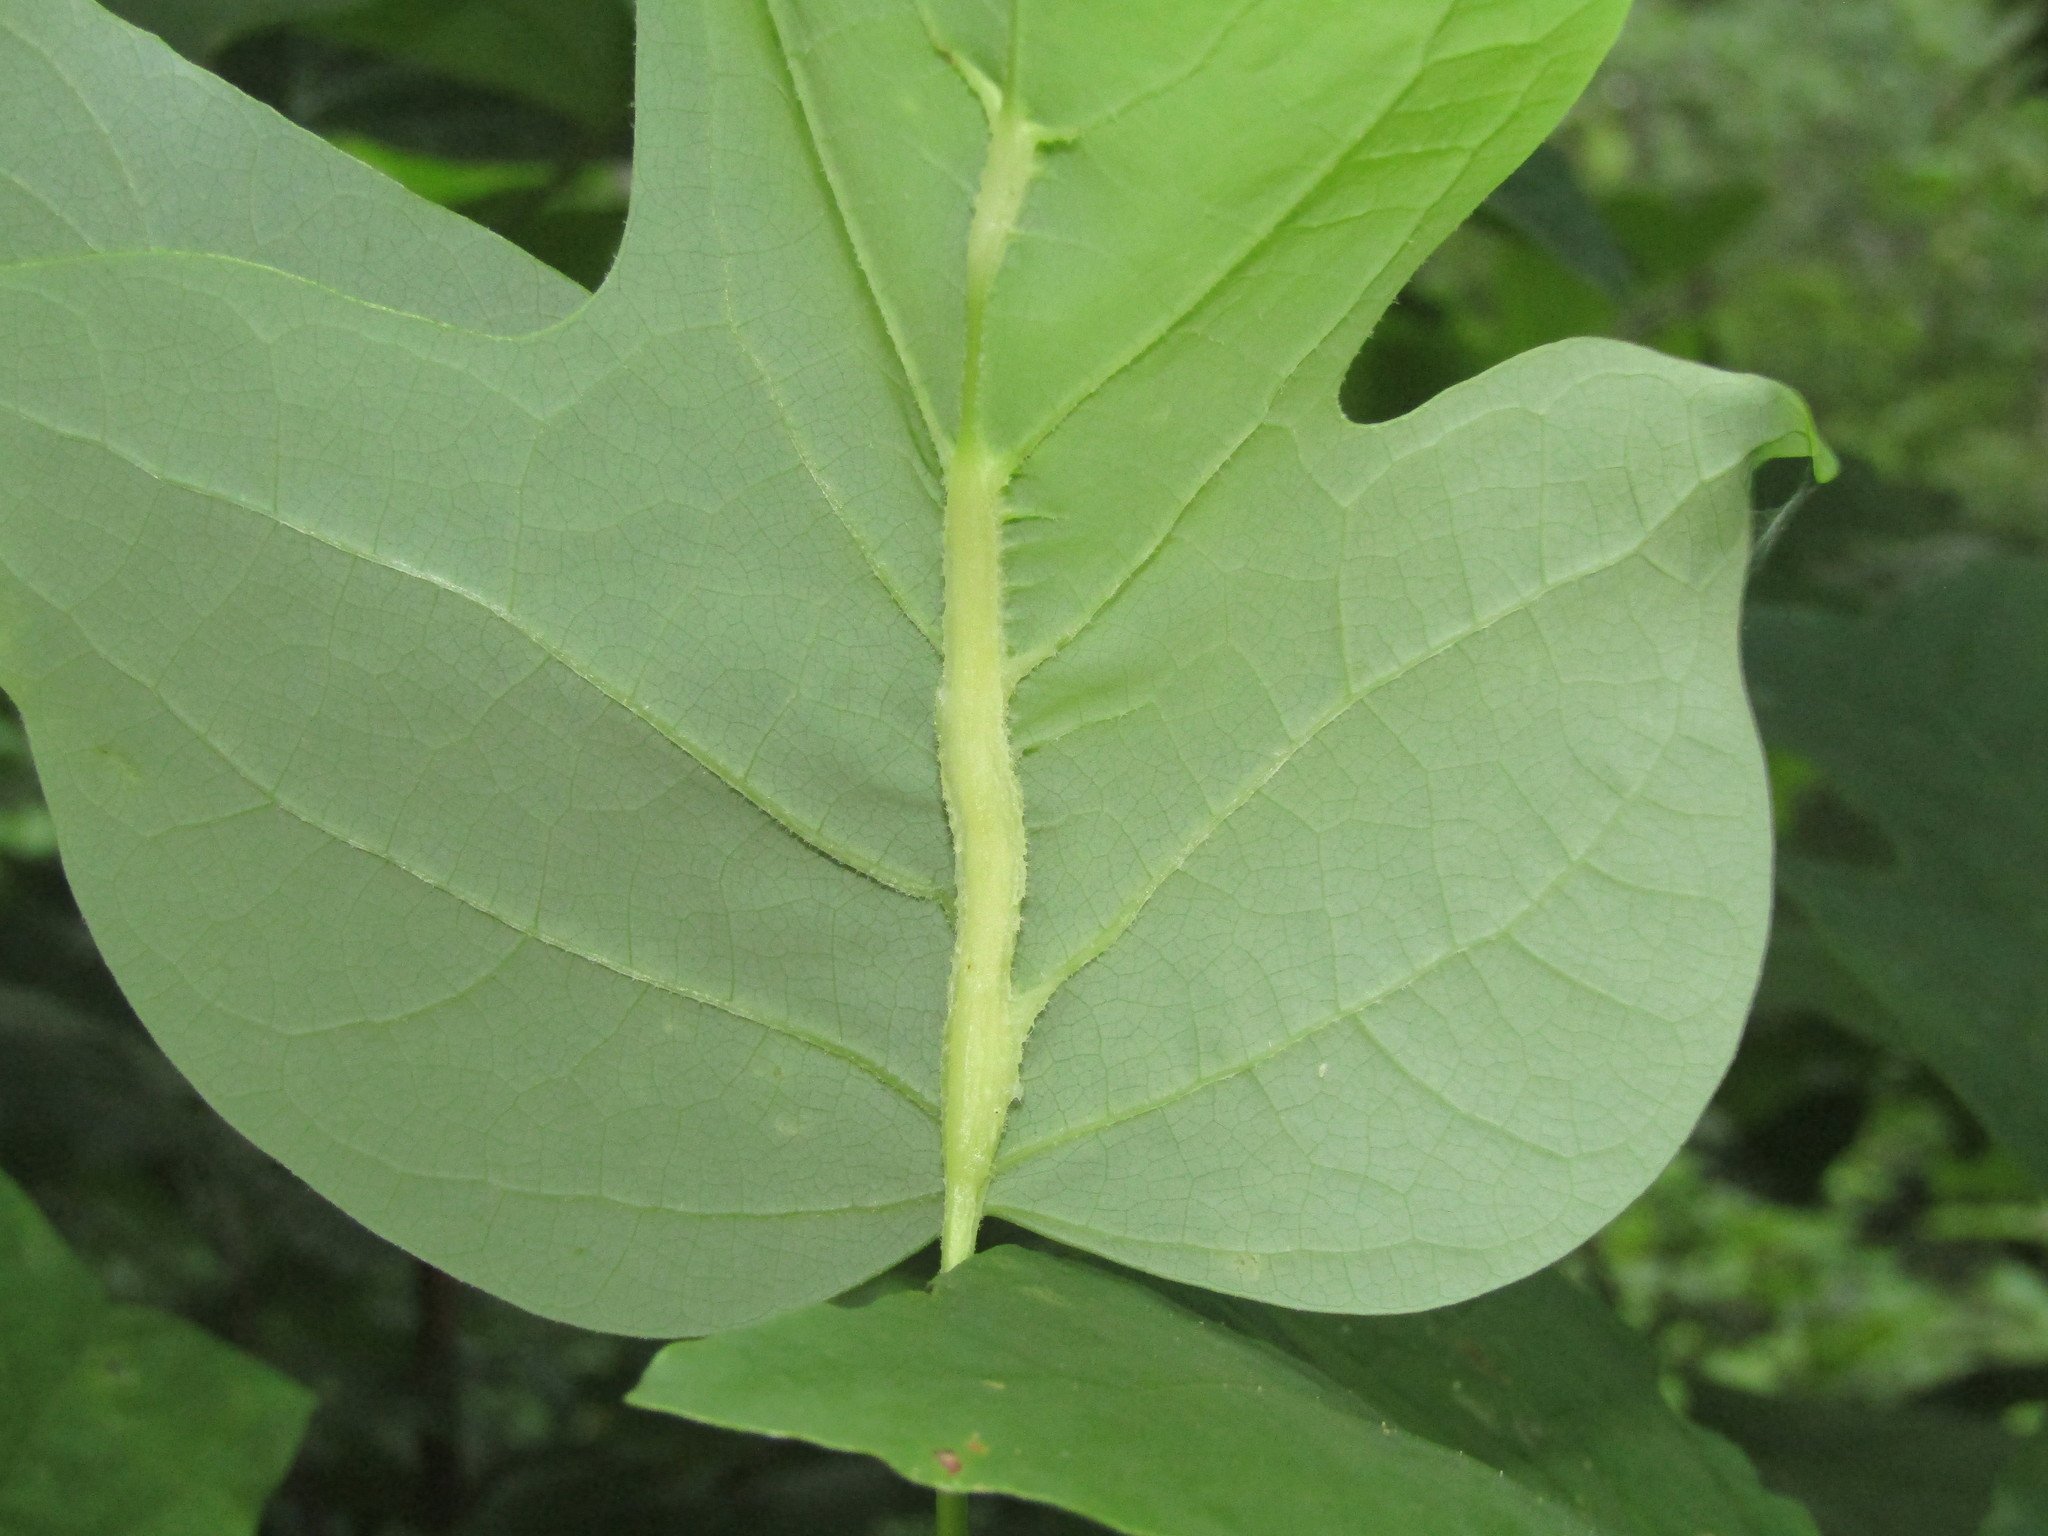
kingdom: Animalia
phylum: Arthropoda
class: Insecta
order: Diptera
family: Cecidomyiidae
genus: Resseliella
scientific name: Resseliella tulipiferae
